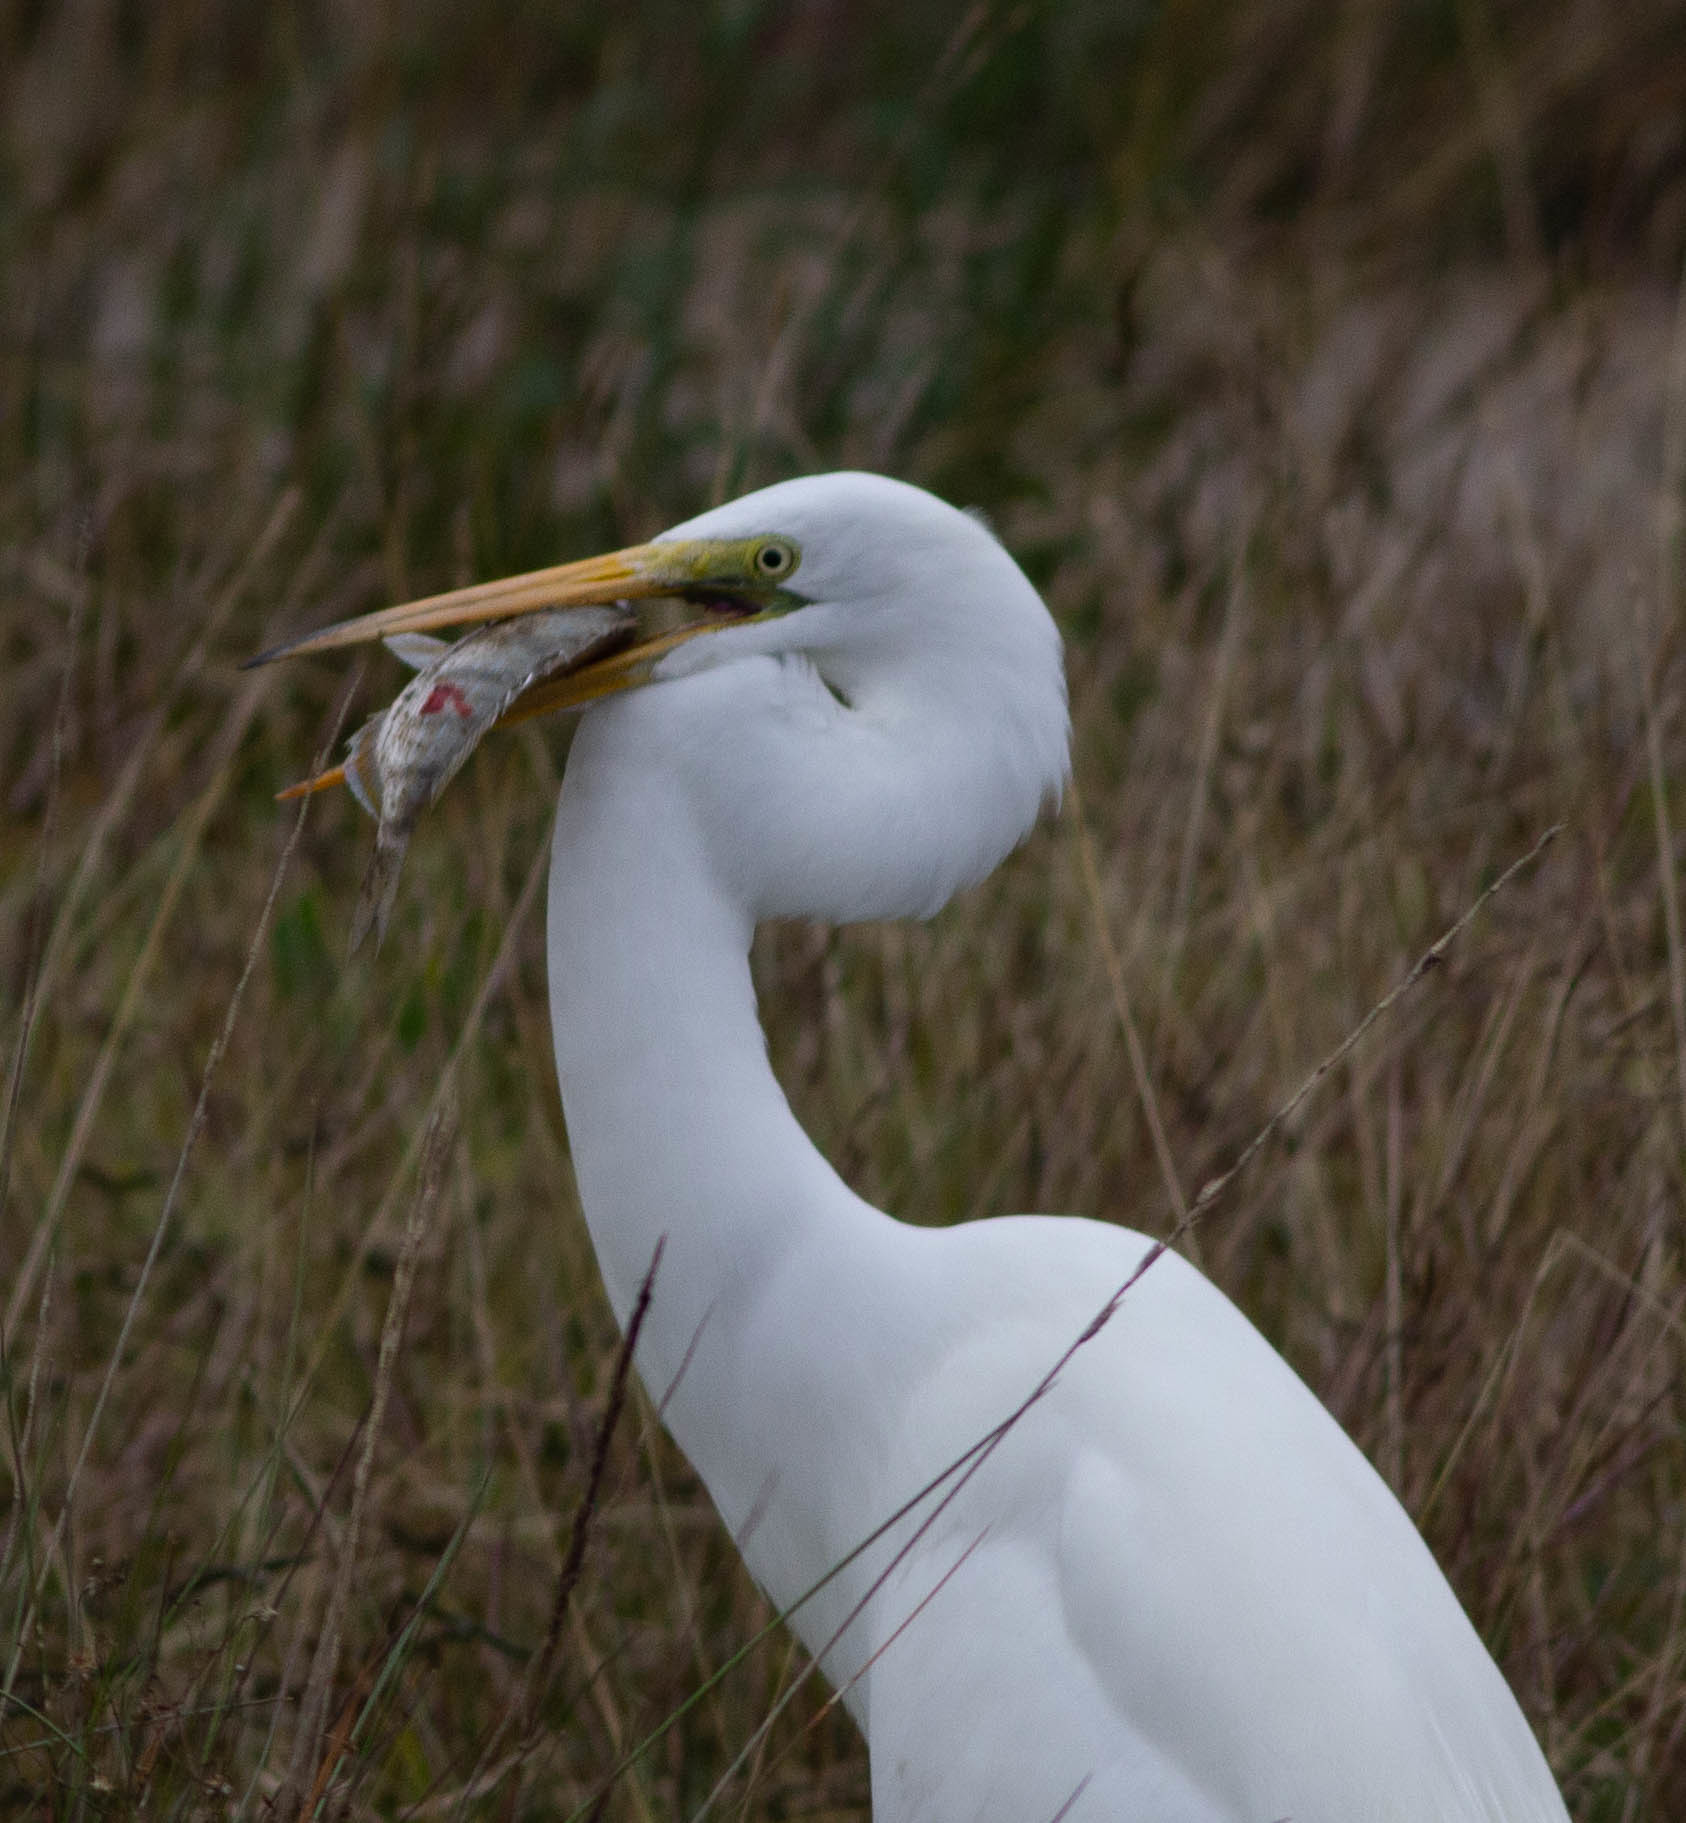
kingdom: Animalia
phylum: Chordata
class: Aves
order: Pelecaniformes
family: Ardeidae
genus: Ardea
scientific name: Ardea alba
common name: Great egret
